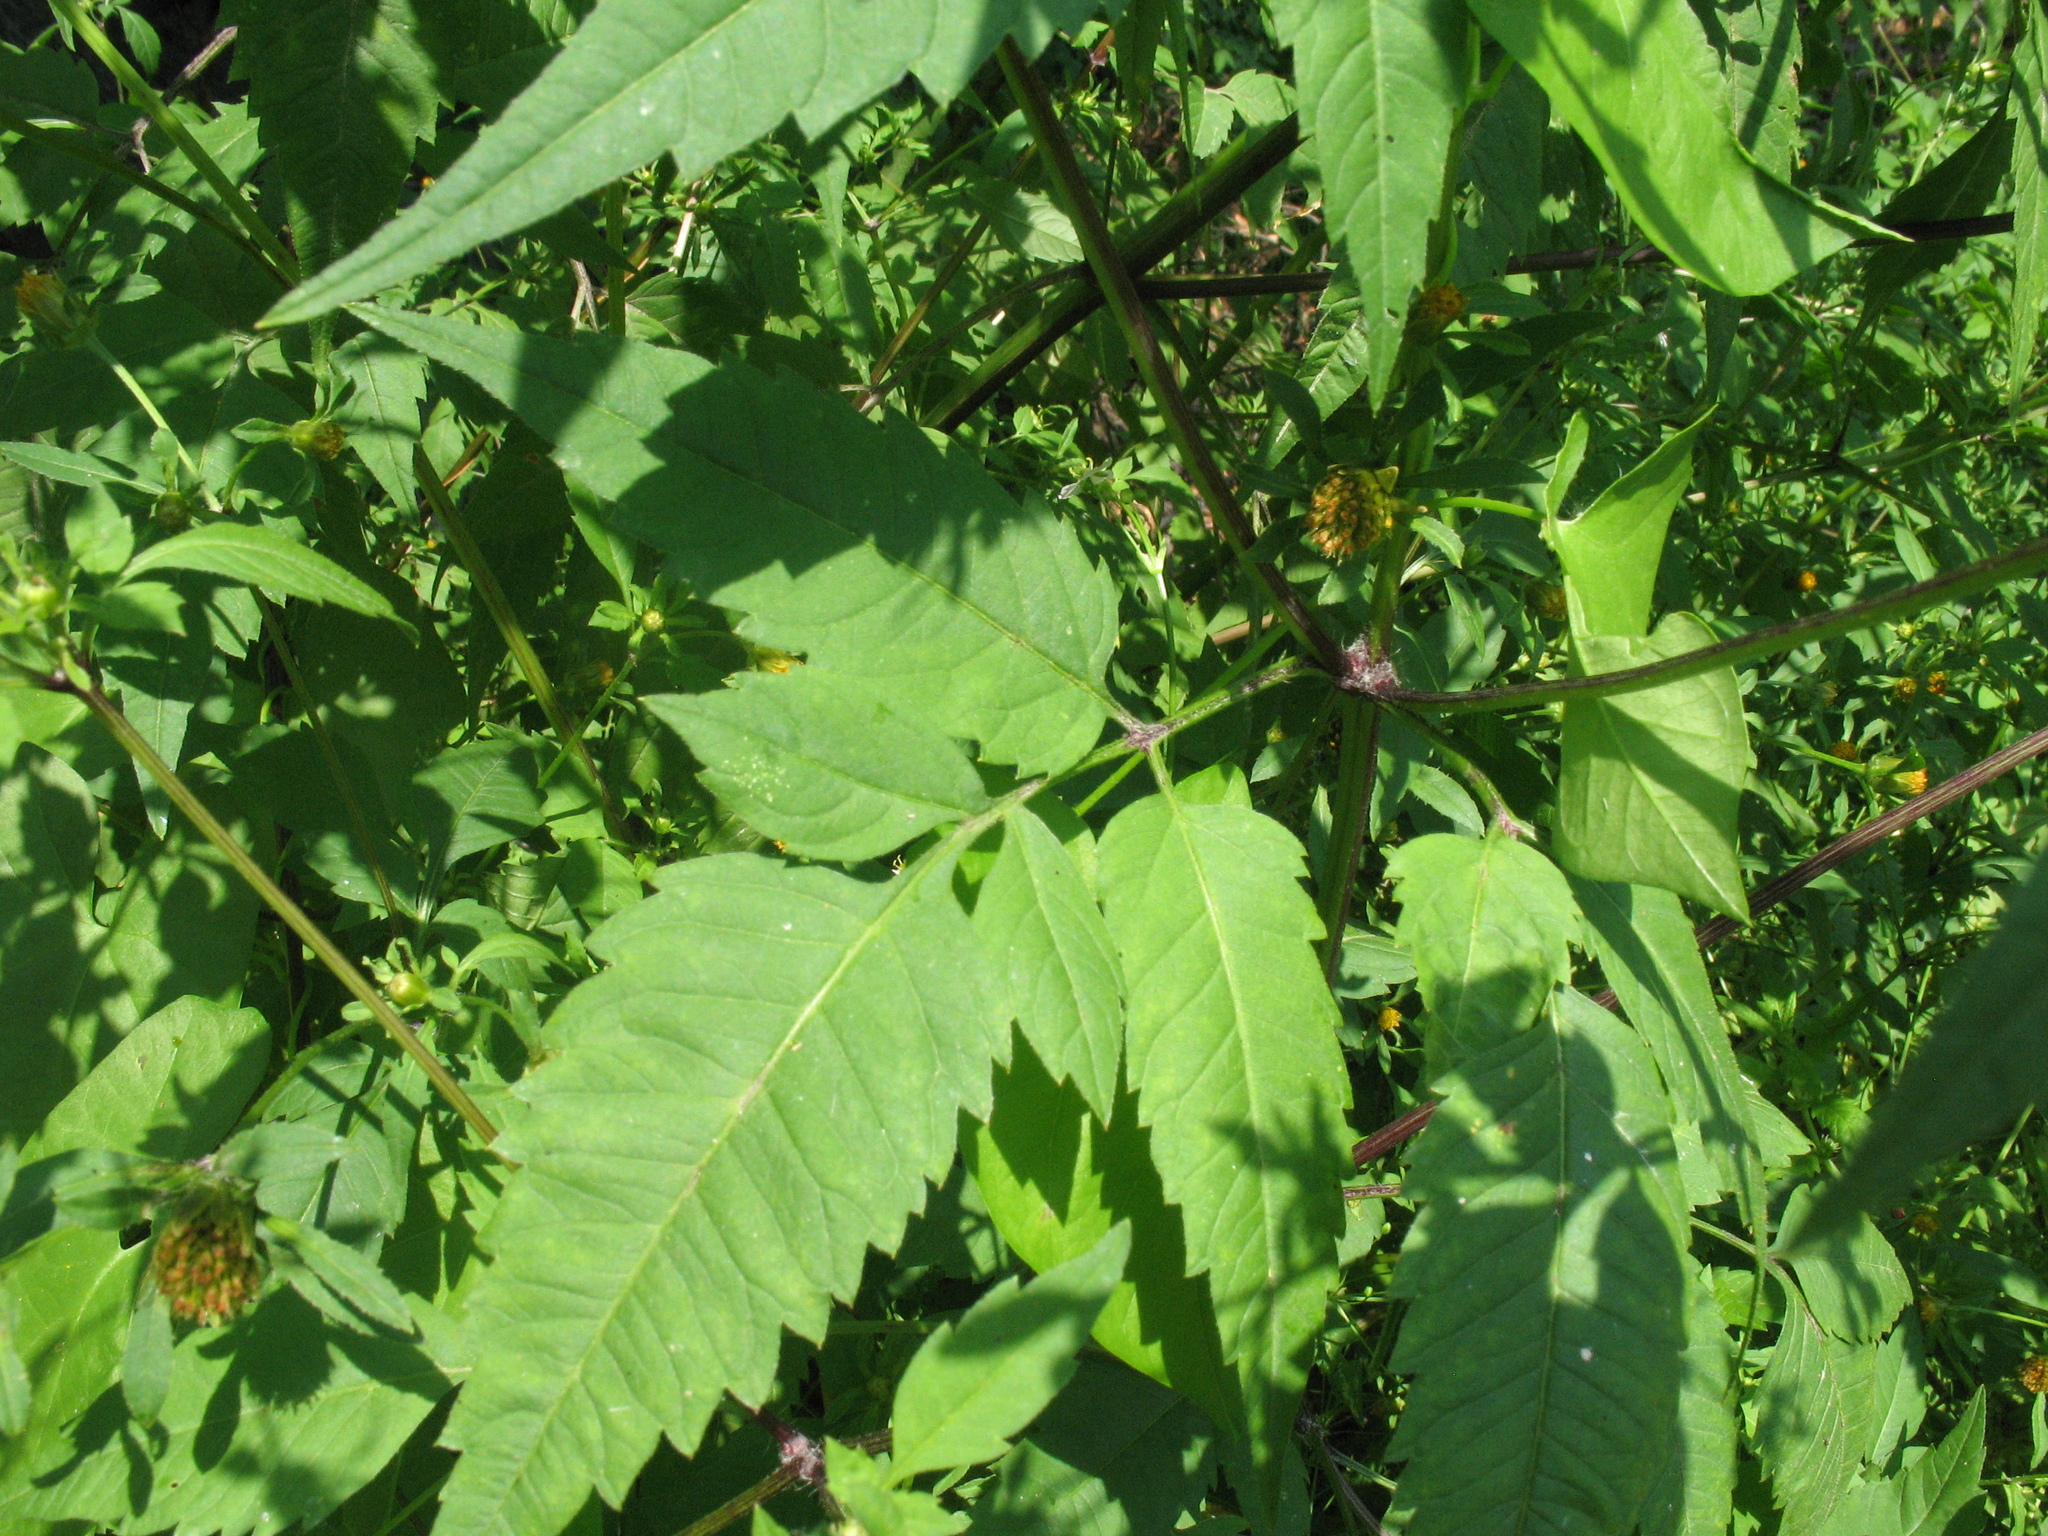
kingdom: Plantae
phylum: Tracheophyta
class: Magnoliopsida
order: Asterales
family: Asteraceae
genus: Bidens
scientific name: Bidens frondosa
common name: Beggarticks
